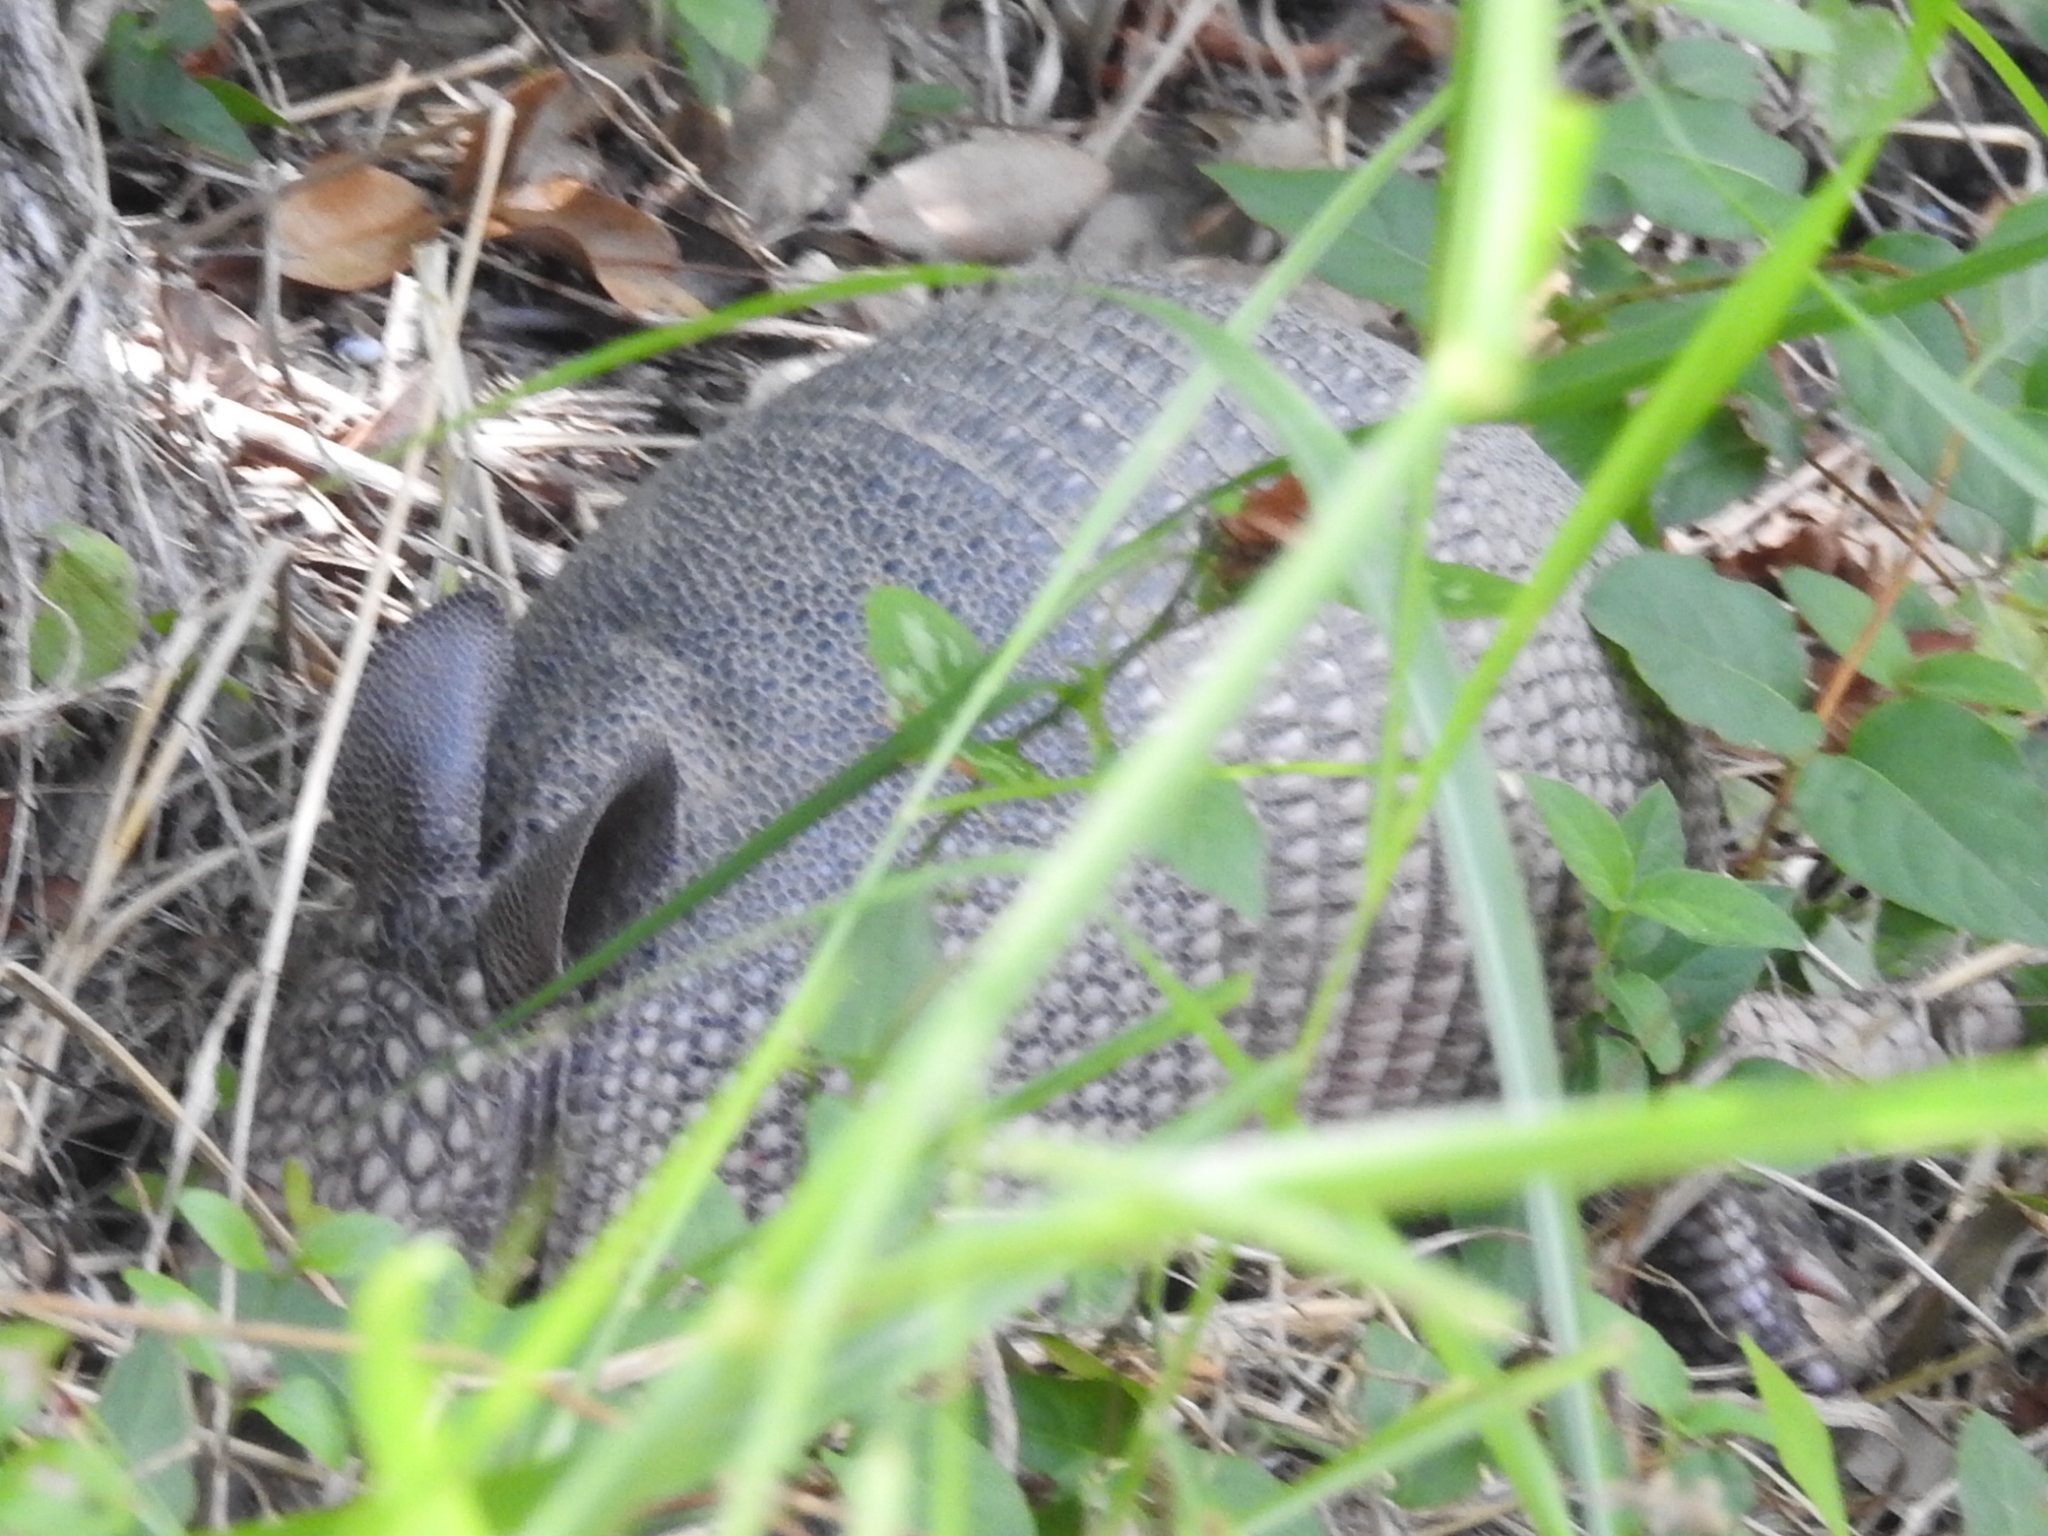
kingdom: Animalia
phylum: Chordata
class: Mammalia
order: Cingulata
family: Dasypodidae
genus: Dasypus
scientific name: Dasypus novemcinctus
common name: Nine-banded armadillo
